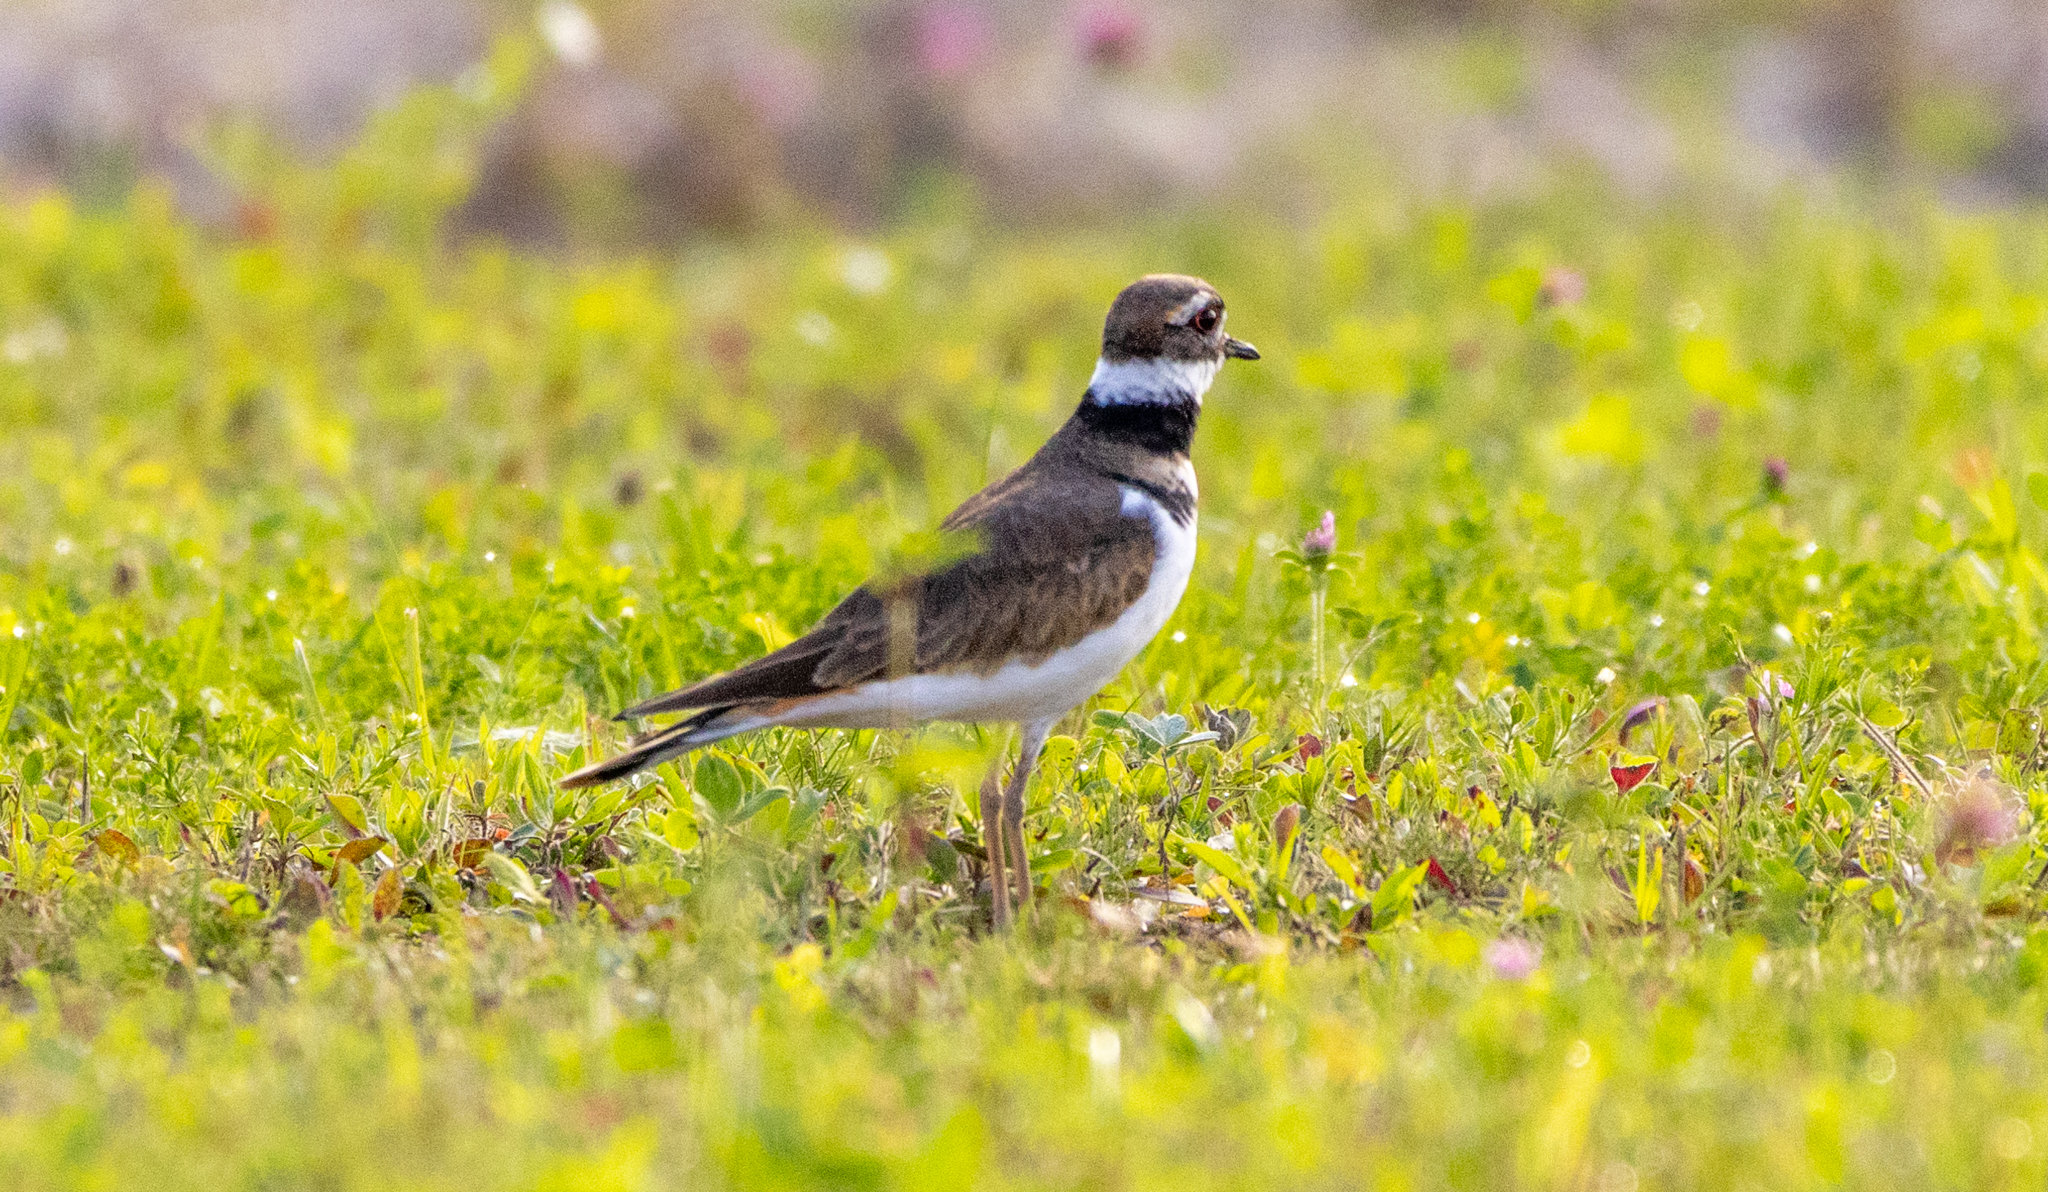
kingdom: Animalia
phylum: Chordata
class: Aves
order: Charadriiformes
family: Charadriidae
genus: Charadrius
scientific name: Charadrius vociferus
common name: Killdeer
